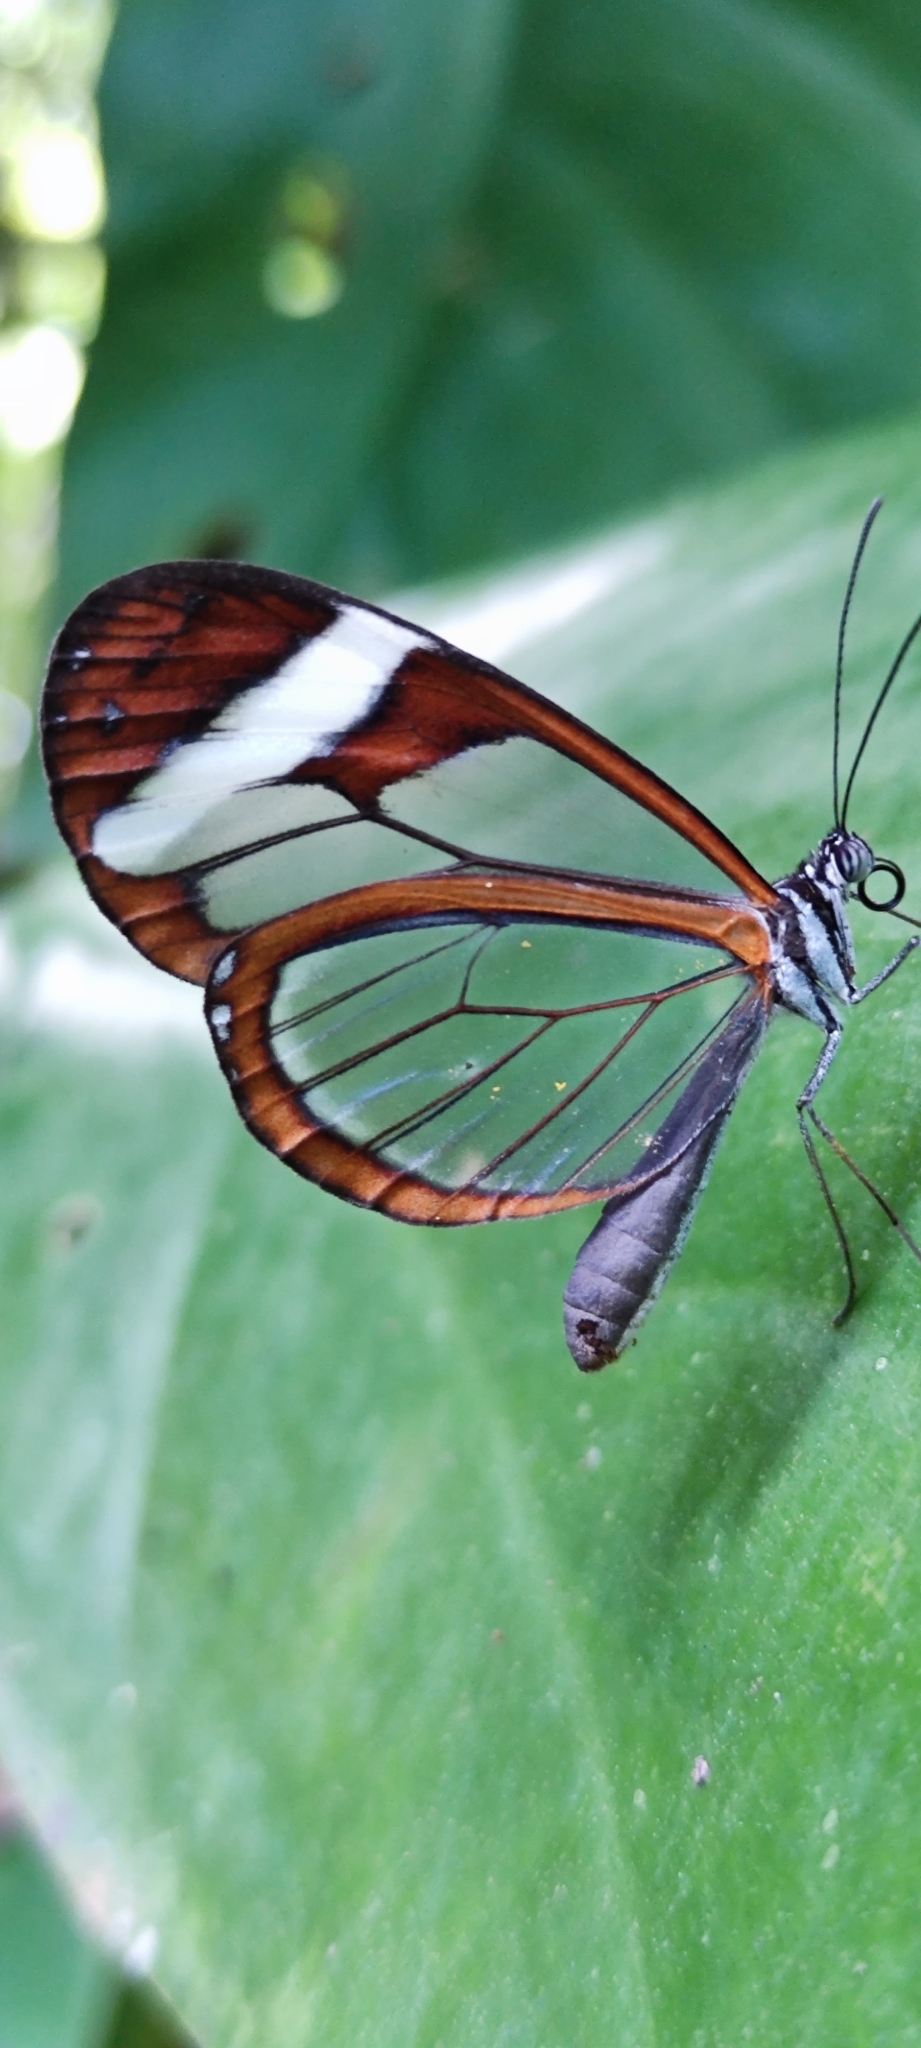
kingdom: Animalia
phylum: Arthropoda
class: Insecta
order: Lepidoptera
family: Nymphalidae
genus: Oleria
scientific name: Oleria paula
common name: Paula's clearwing
